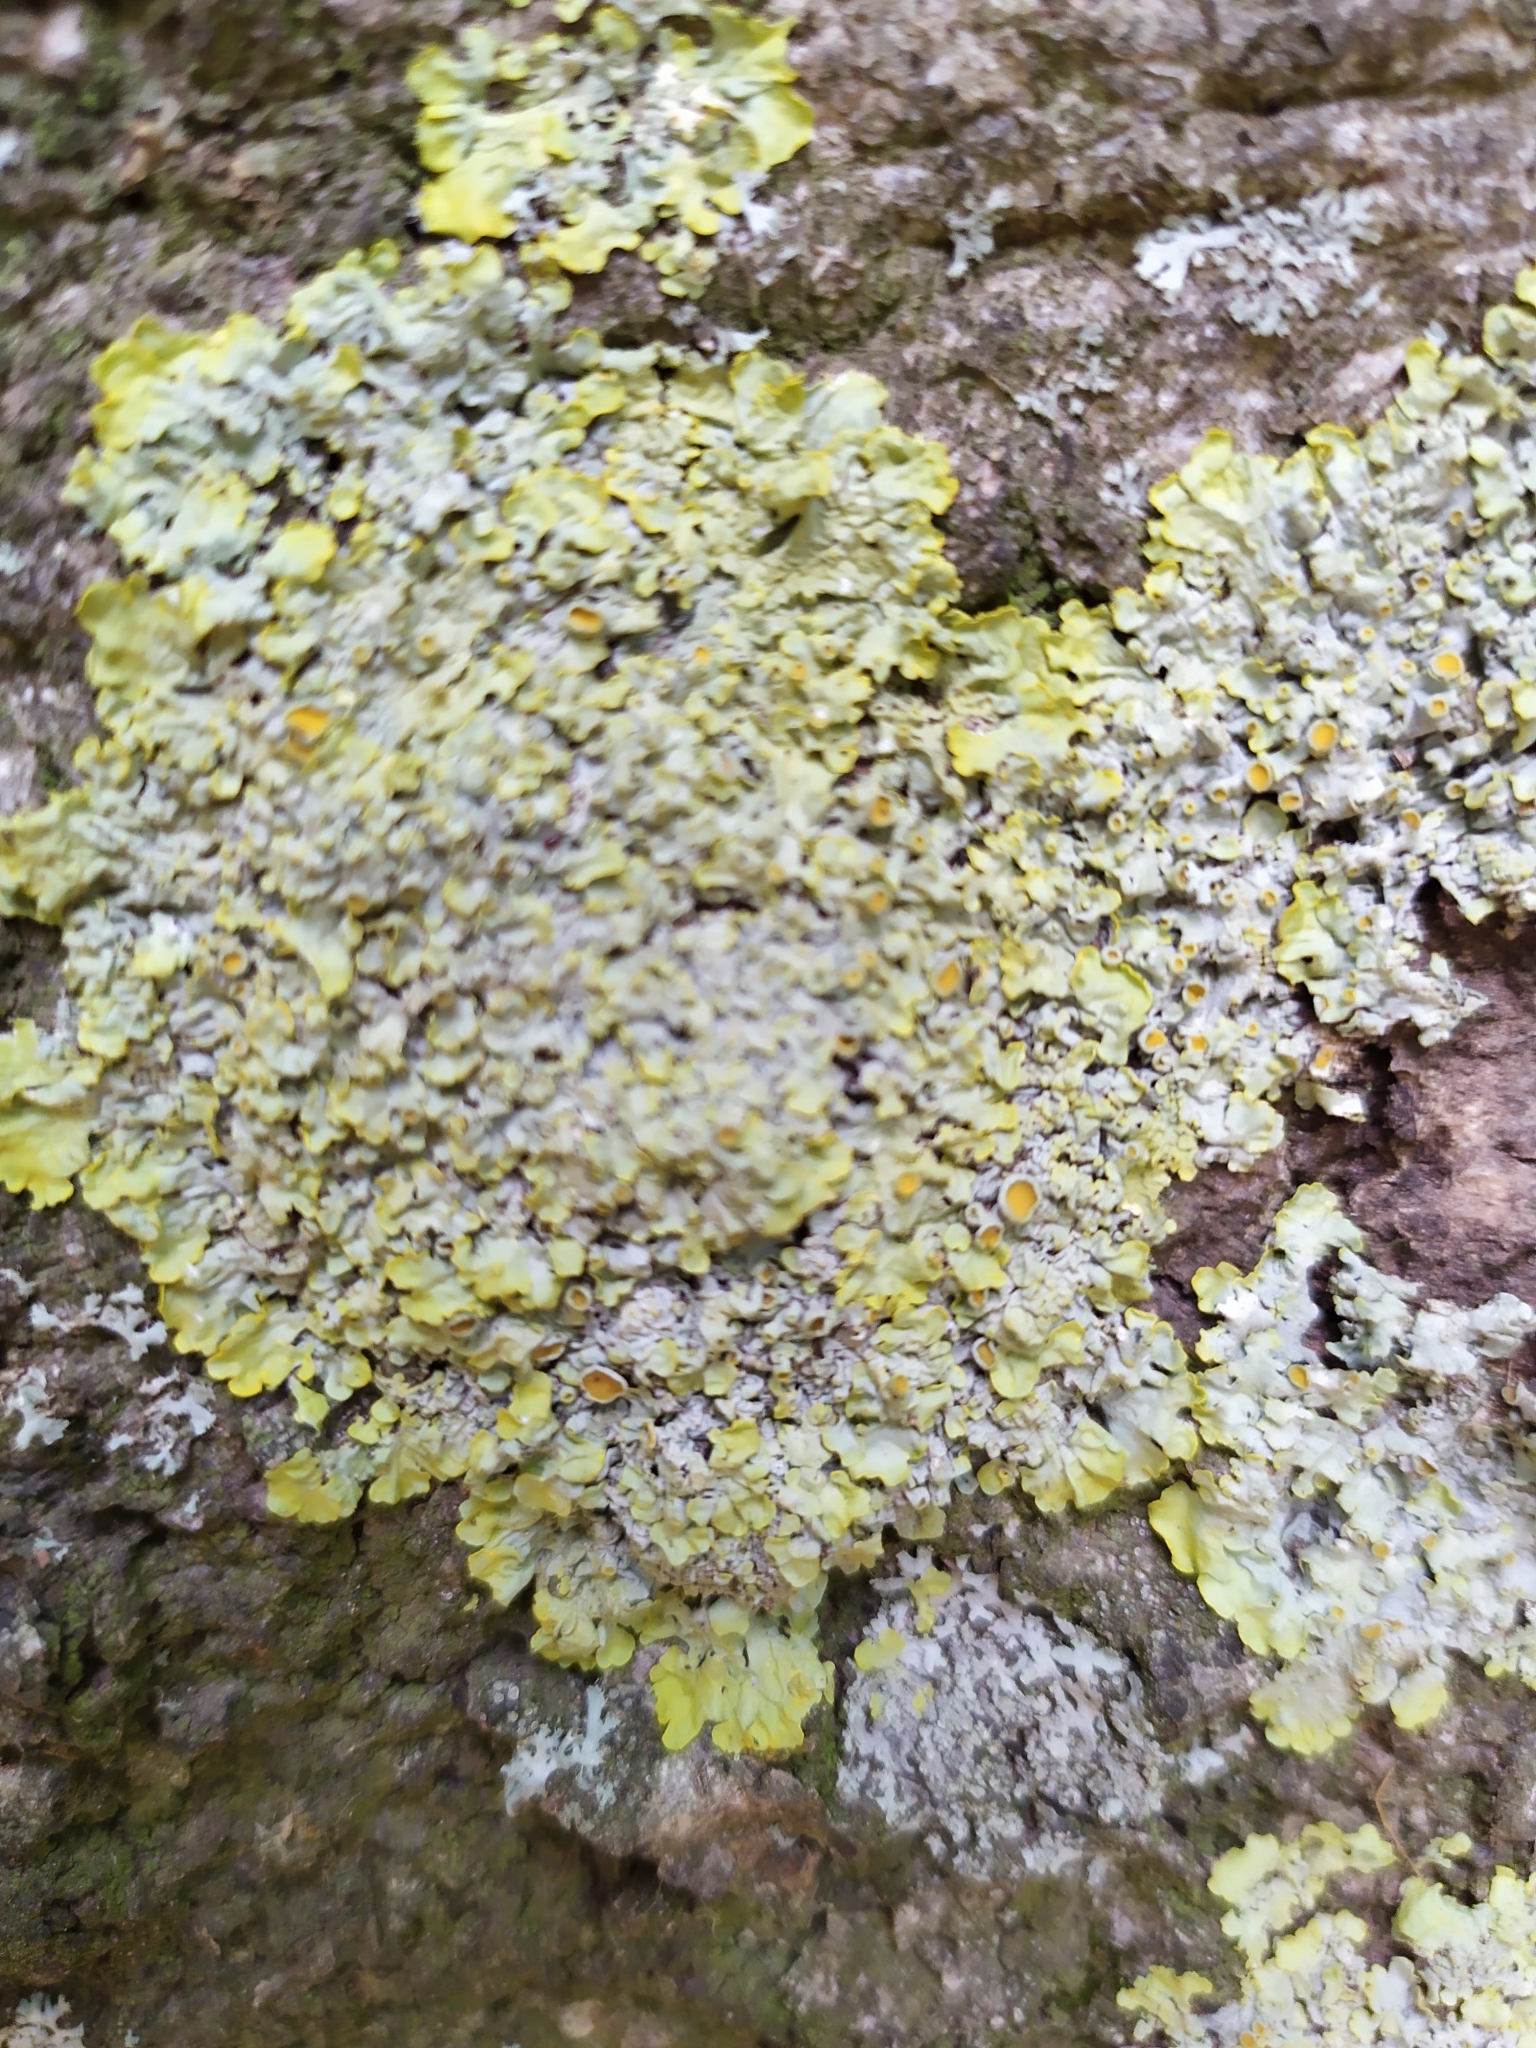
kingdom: Fungi
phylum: Ascomycota
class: Lecanoromycetes
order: Teloschistales
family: Teloschistaceae
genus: Xanthoria
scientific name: Xanthoria parietina
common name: Common orange lichen
